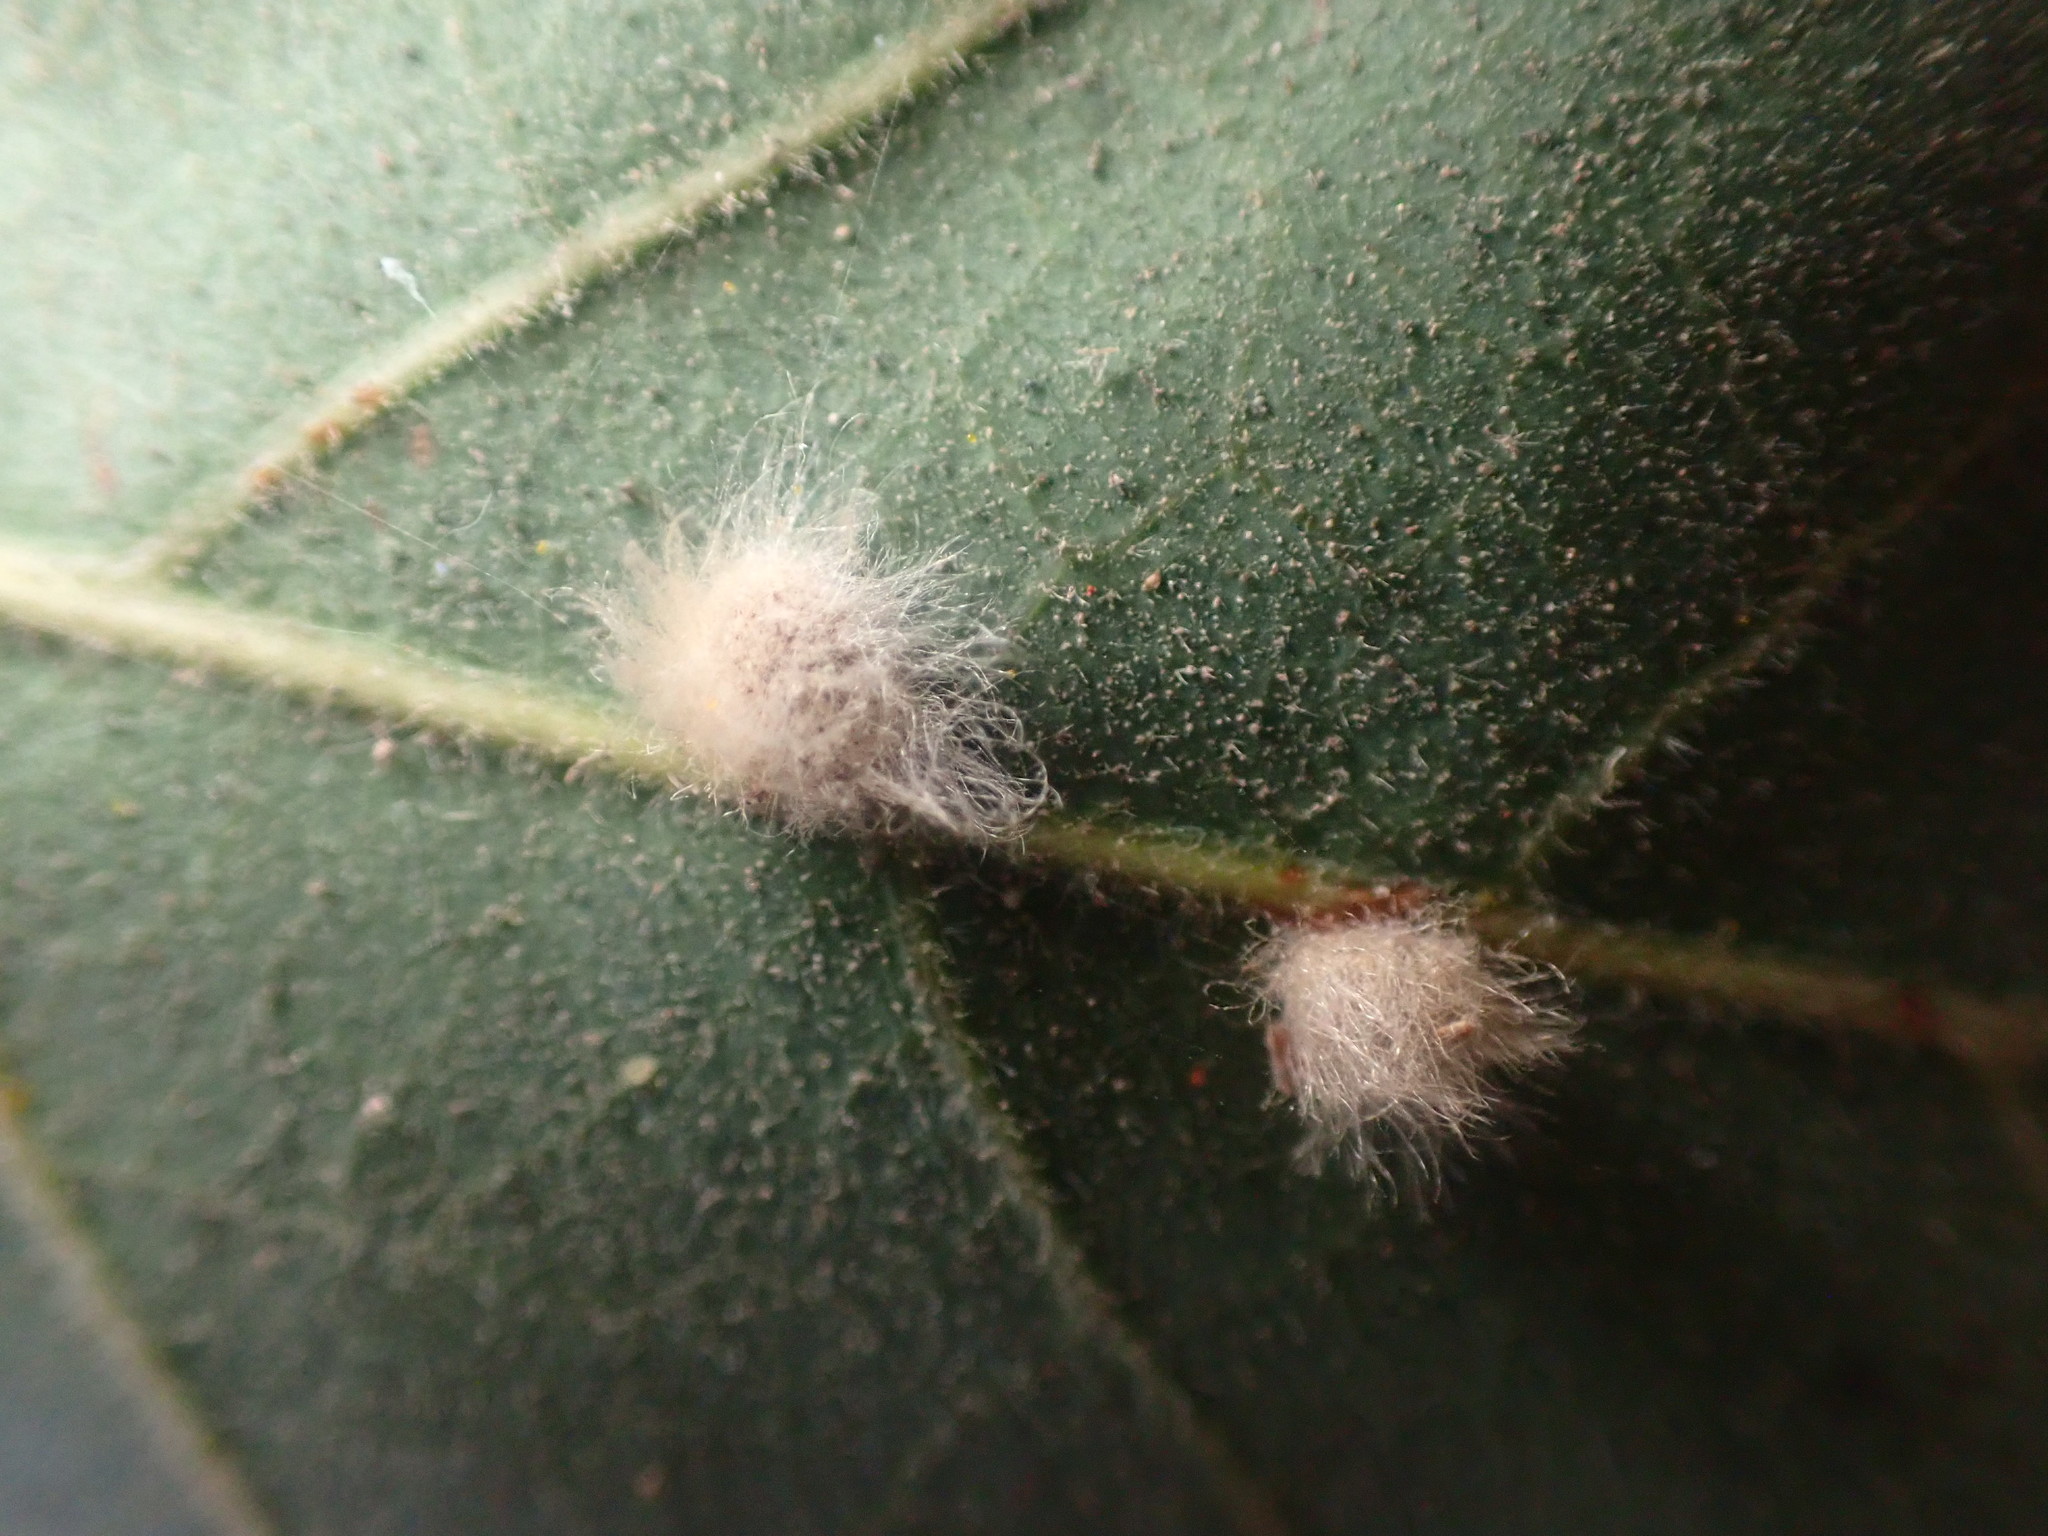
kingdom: Animalia
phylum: Arthropoda
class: Insecta
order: Hymenoptera
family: Cynipidae
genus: Andricus
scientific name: Andricus Druon fullawayi
